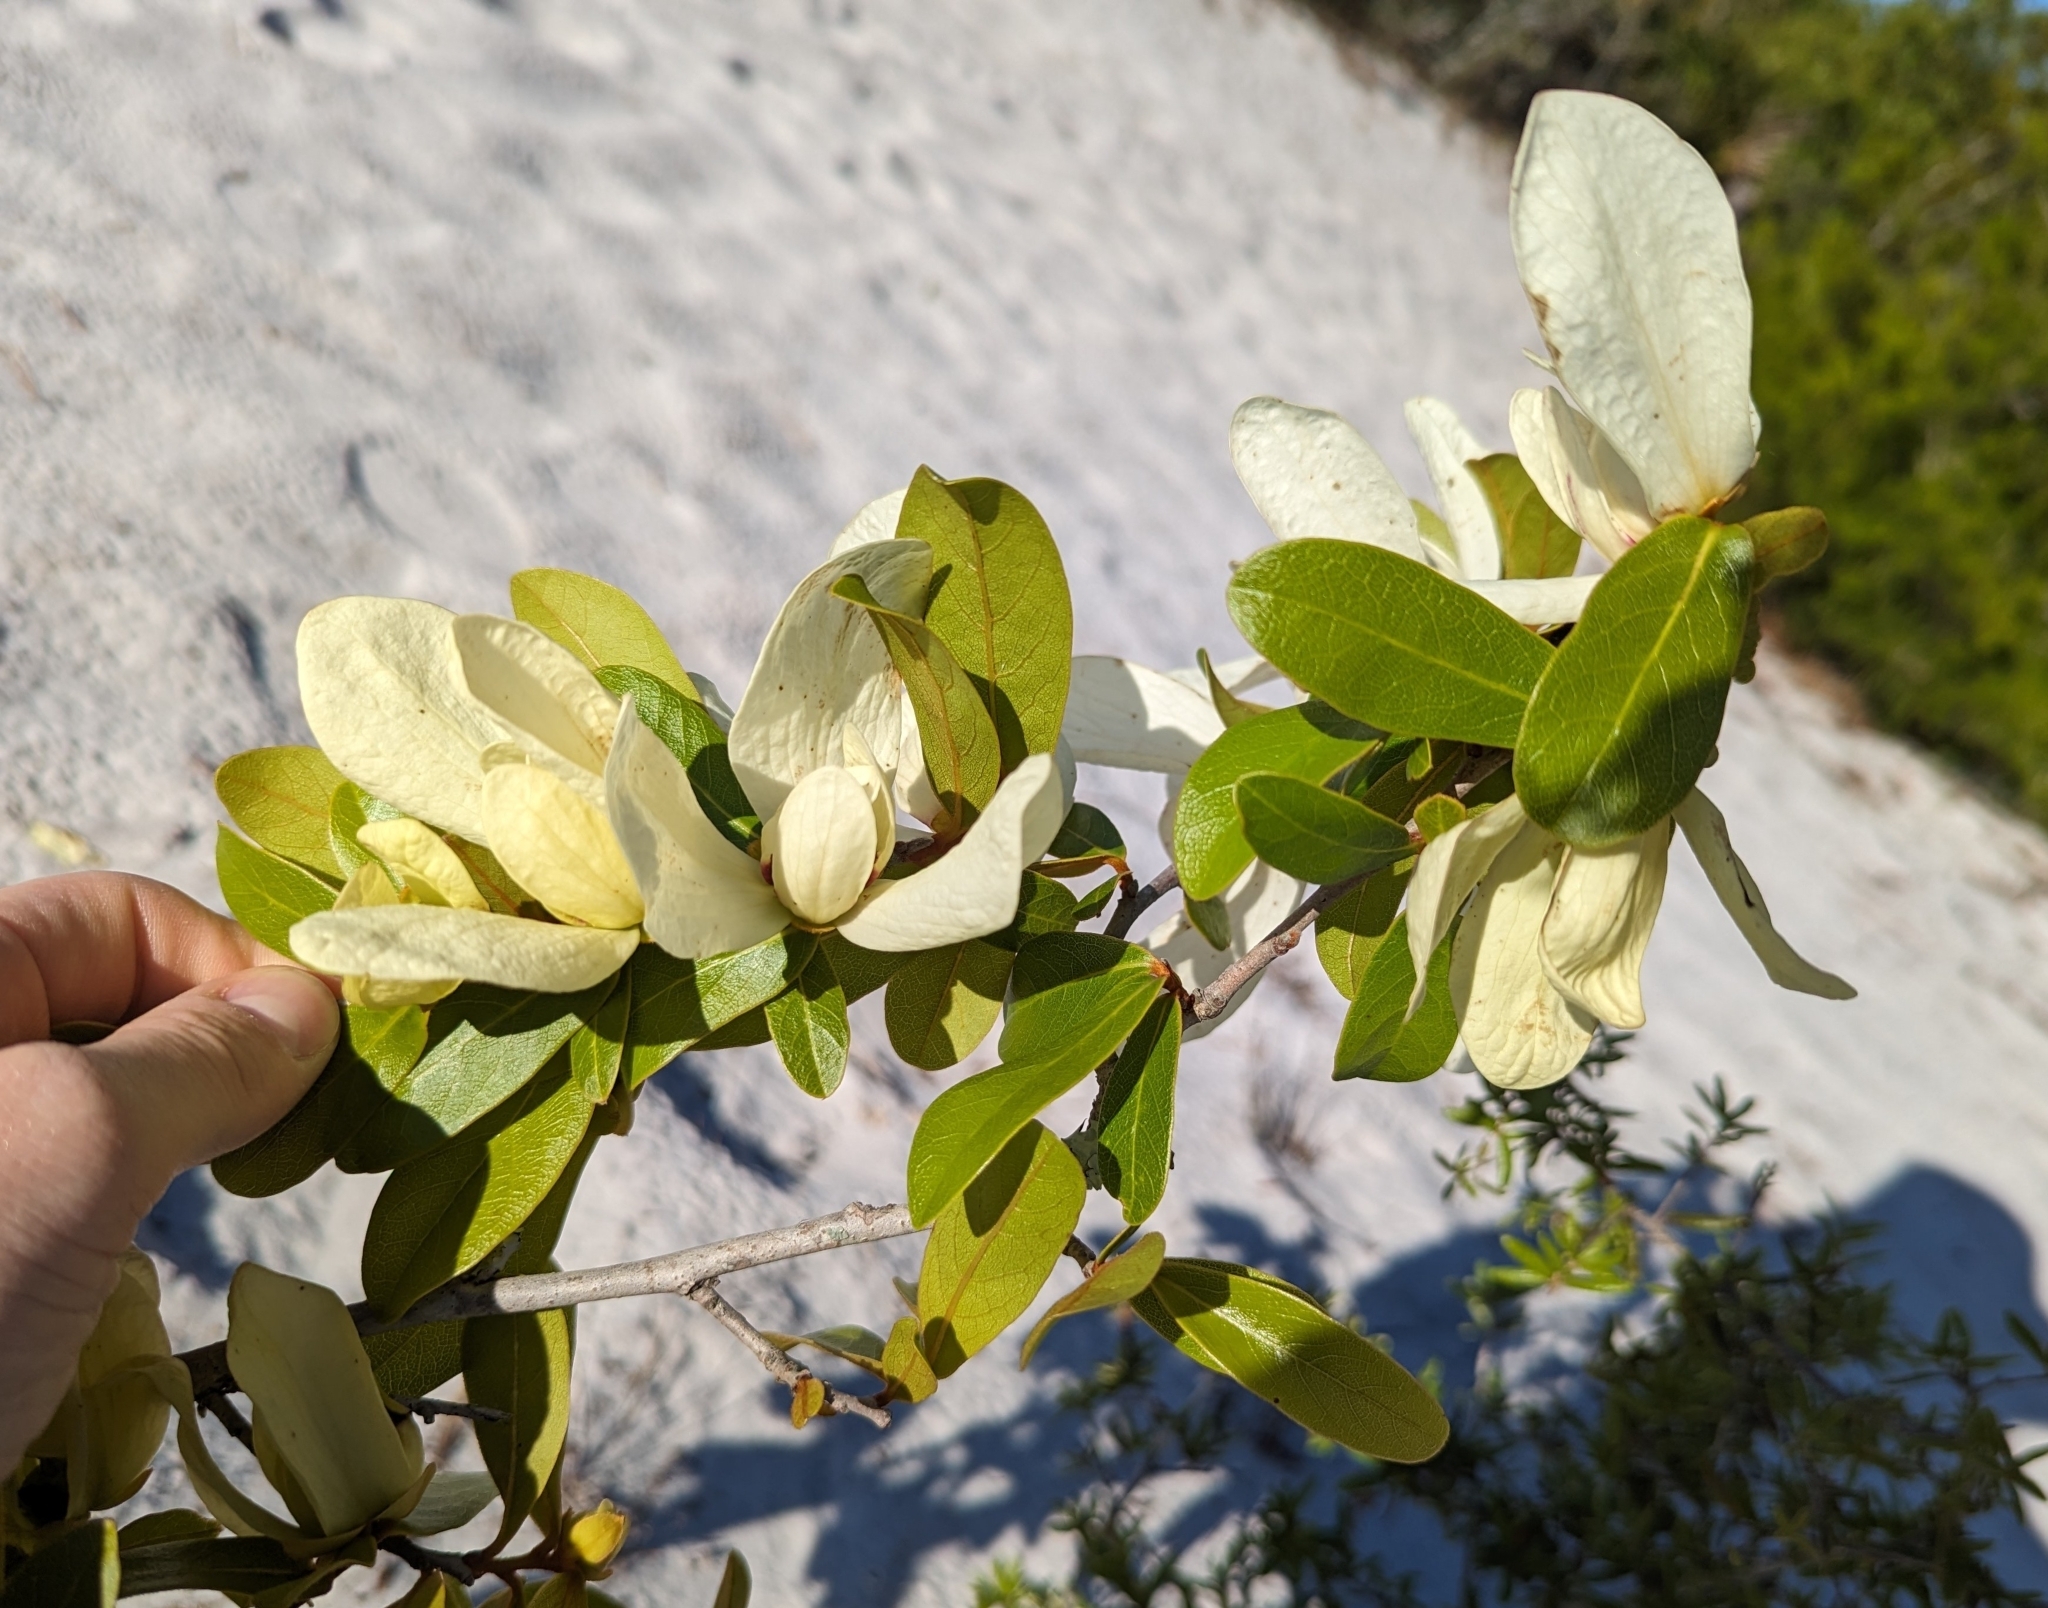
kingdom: Plantae
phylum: Tracheophyta
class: Magnoliopsida
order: Magnoliales
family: Annonaceae
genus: Asimina
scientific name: Asimina obovata
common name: Flag pawpaw
